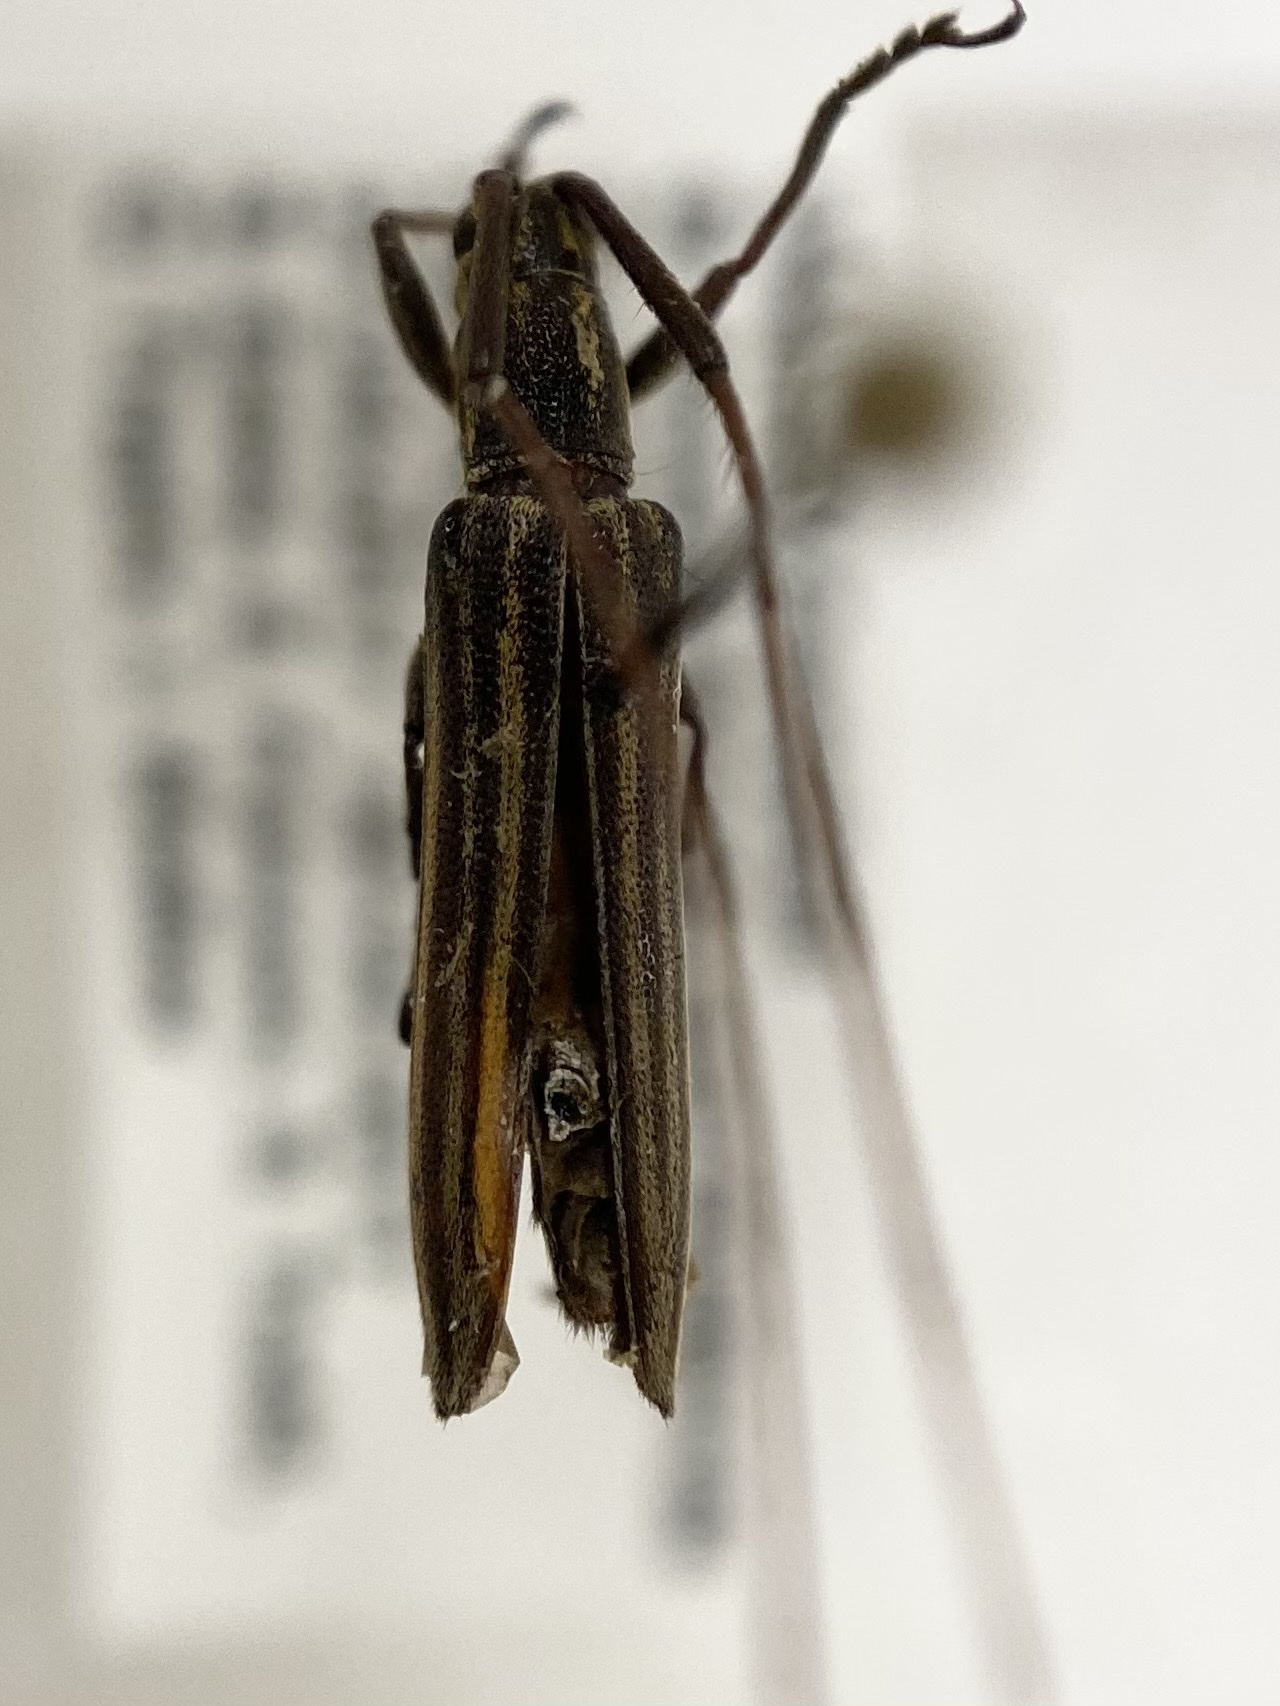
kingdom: Animalia
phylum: Arthropoda
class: Insecta
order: Coleoptera
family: Cerambycidae
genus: Hippopsis
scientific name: Hippopsis
